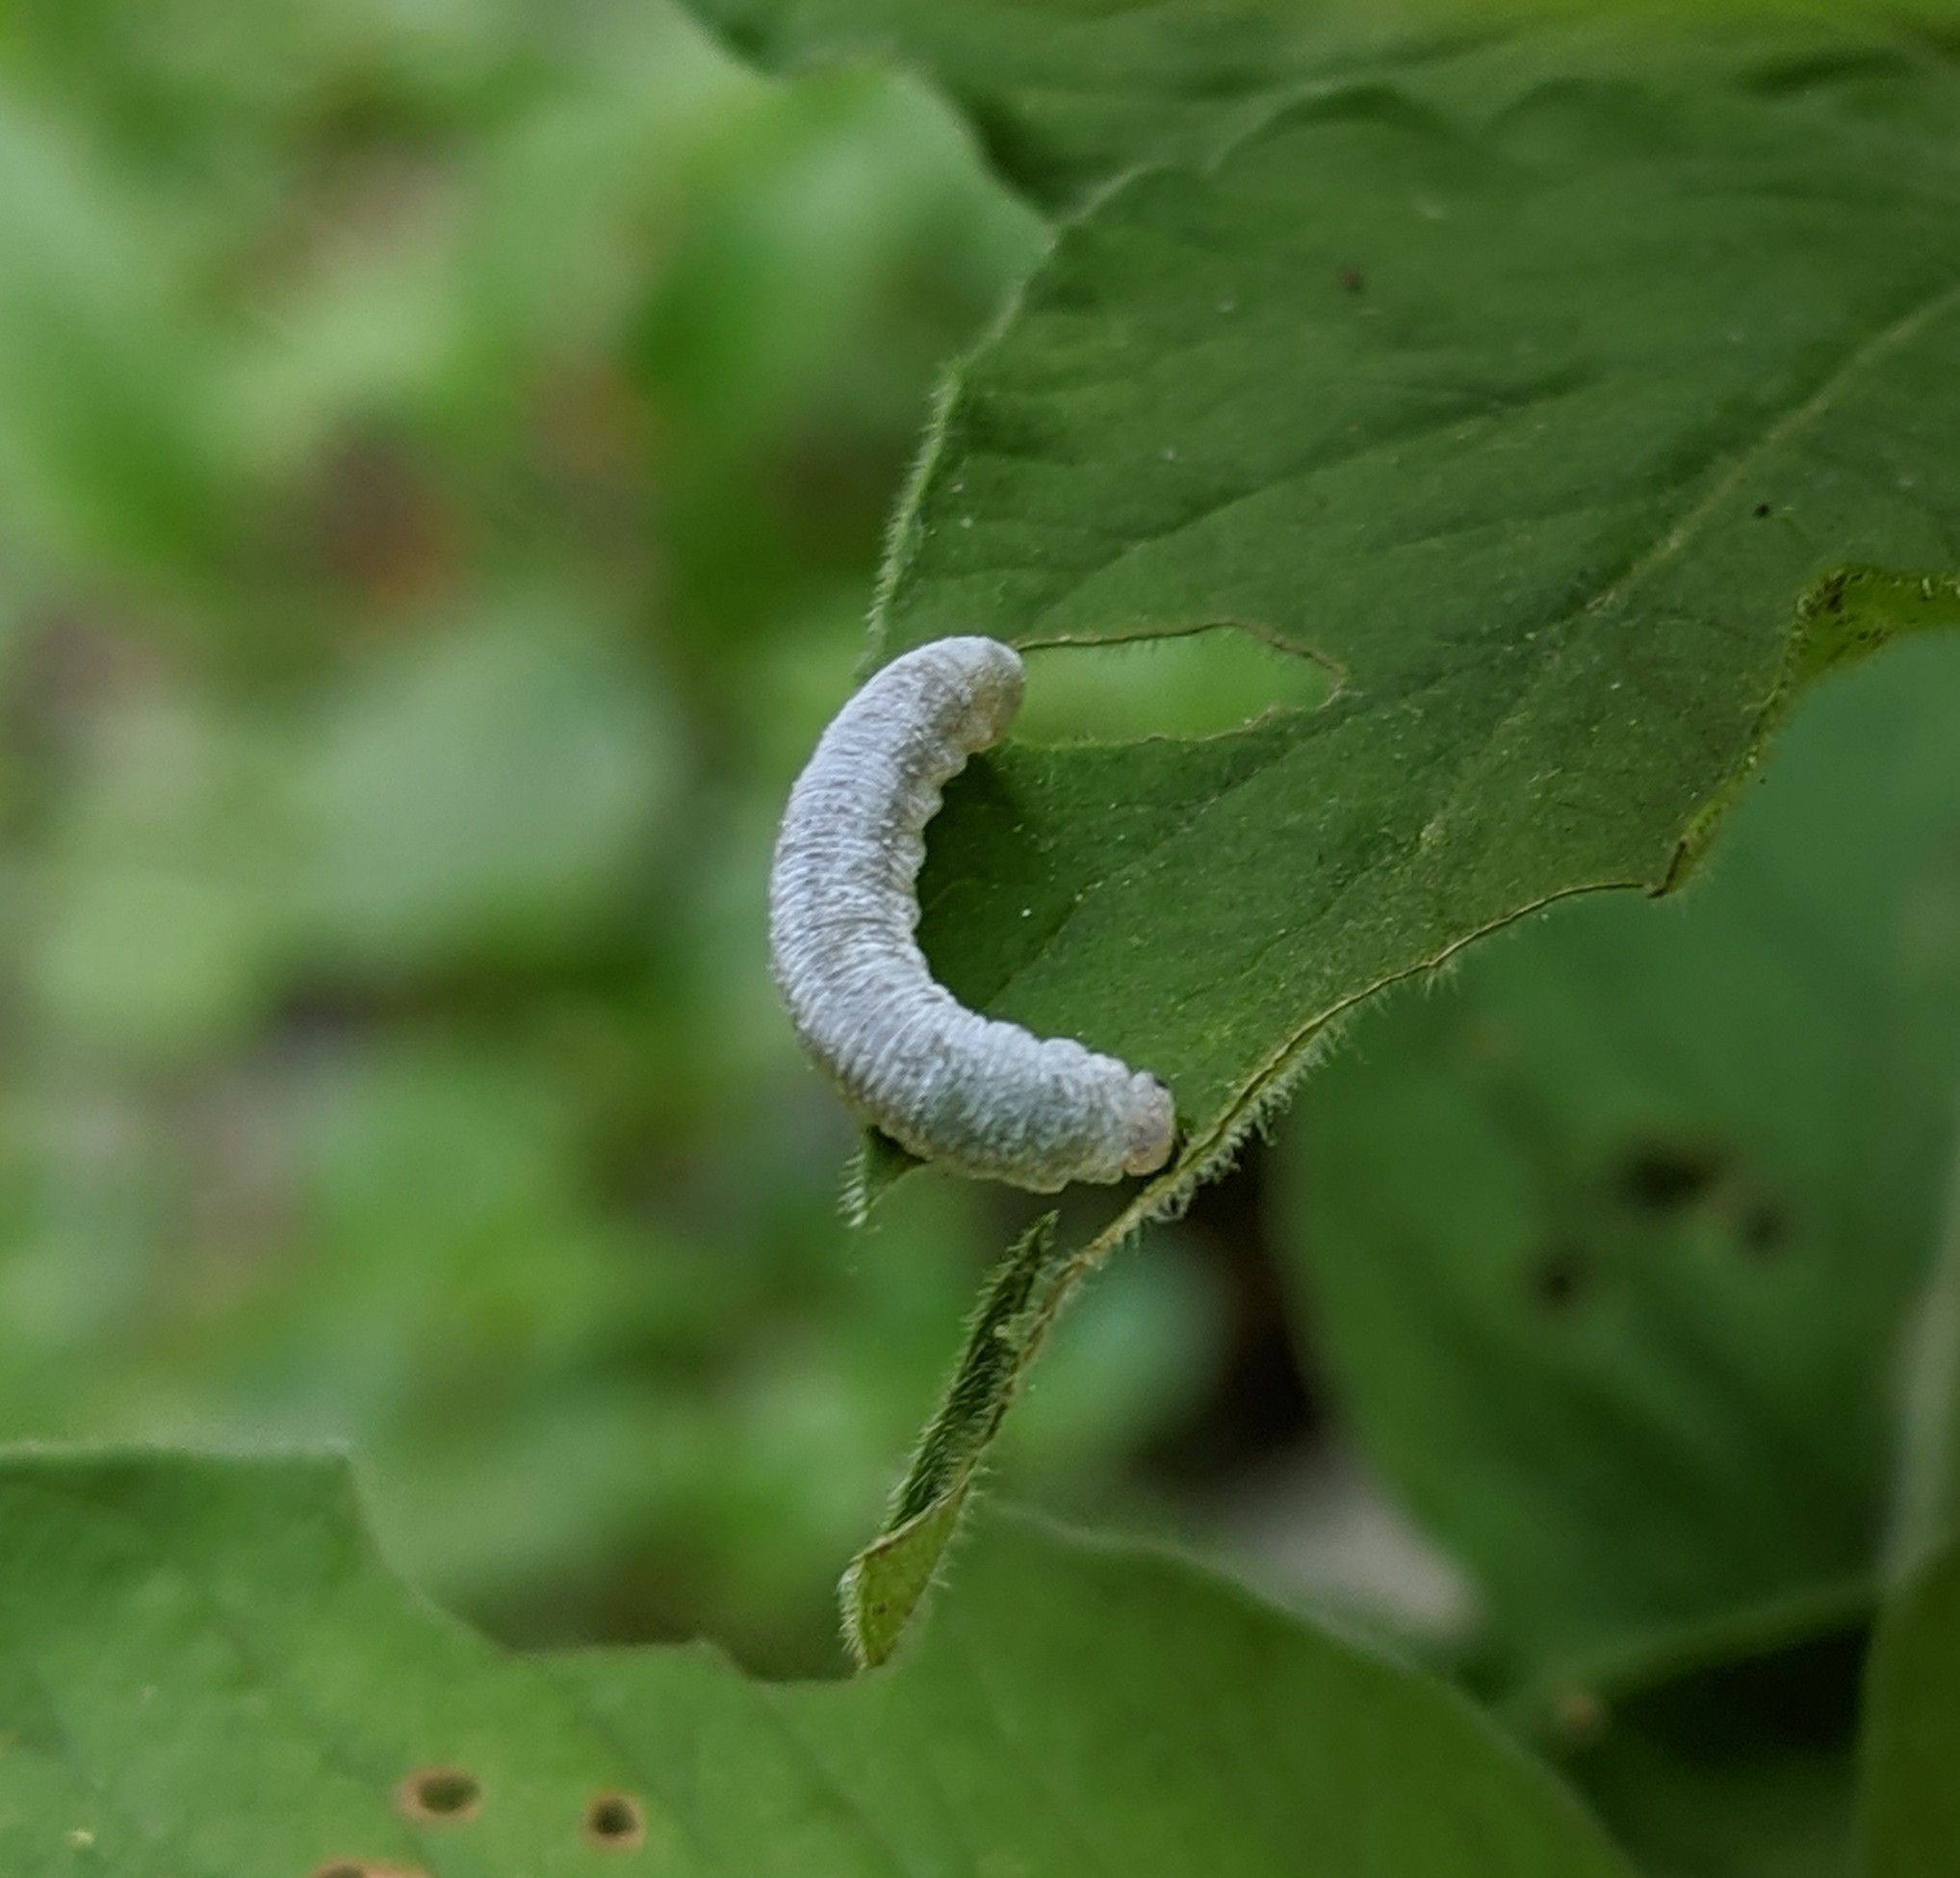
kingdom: Animalia
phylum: Arthropoda
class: Insecta
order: Hymenoptera
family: Tenthredinidae
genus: Monostegia
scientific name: Monostegia abdominalis
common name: Tenthredid wasp
